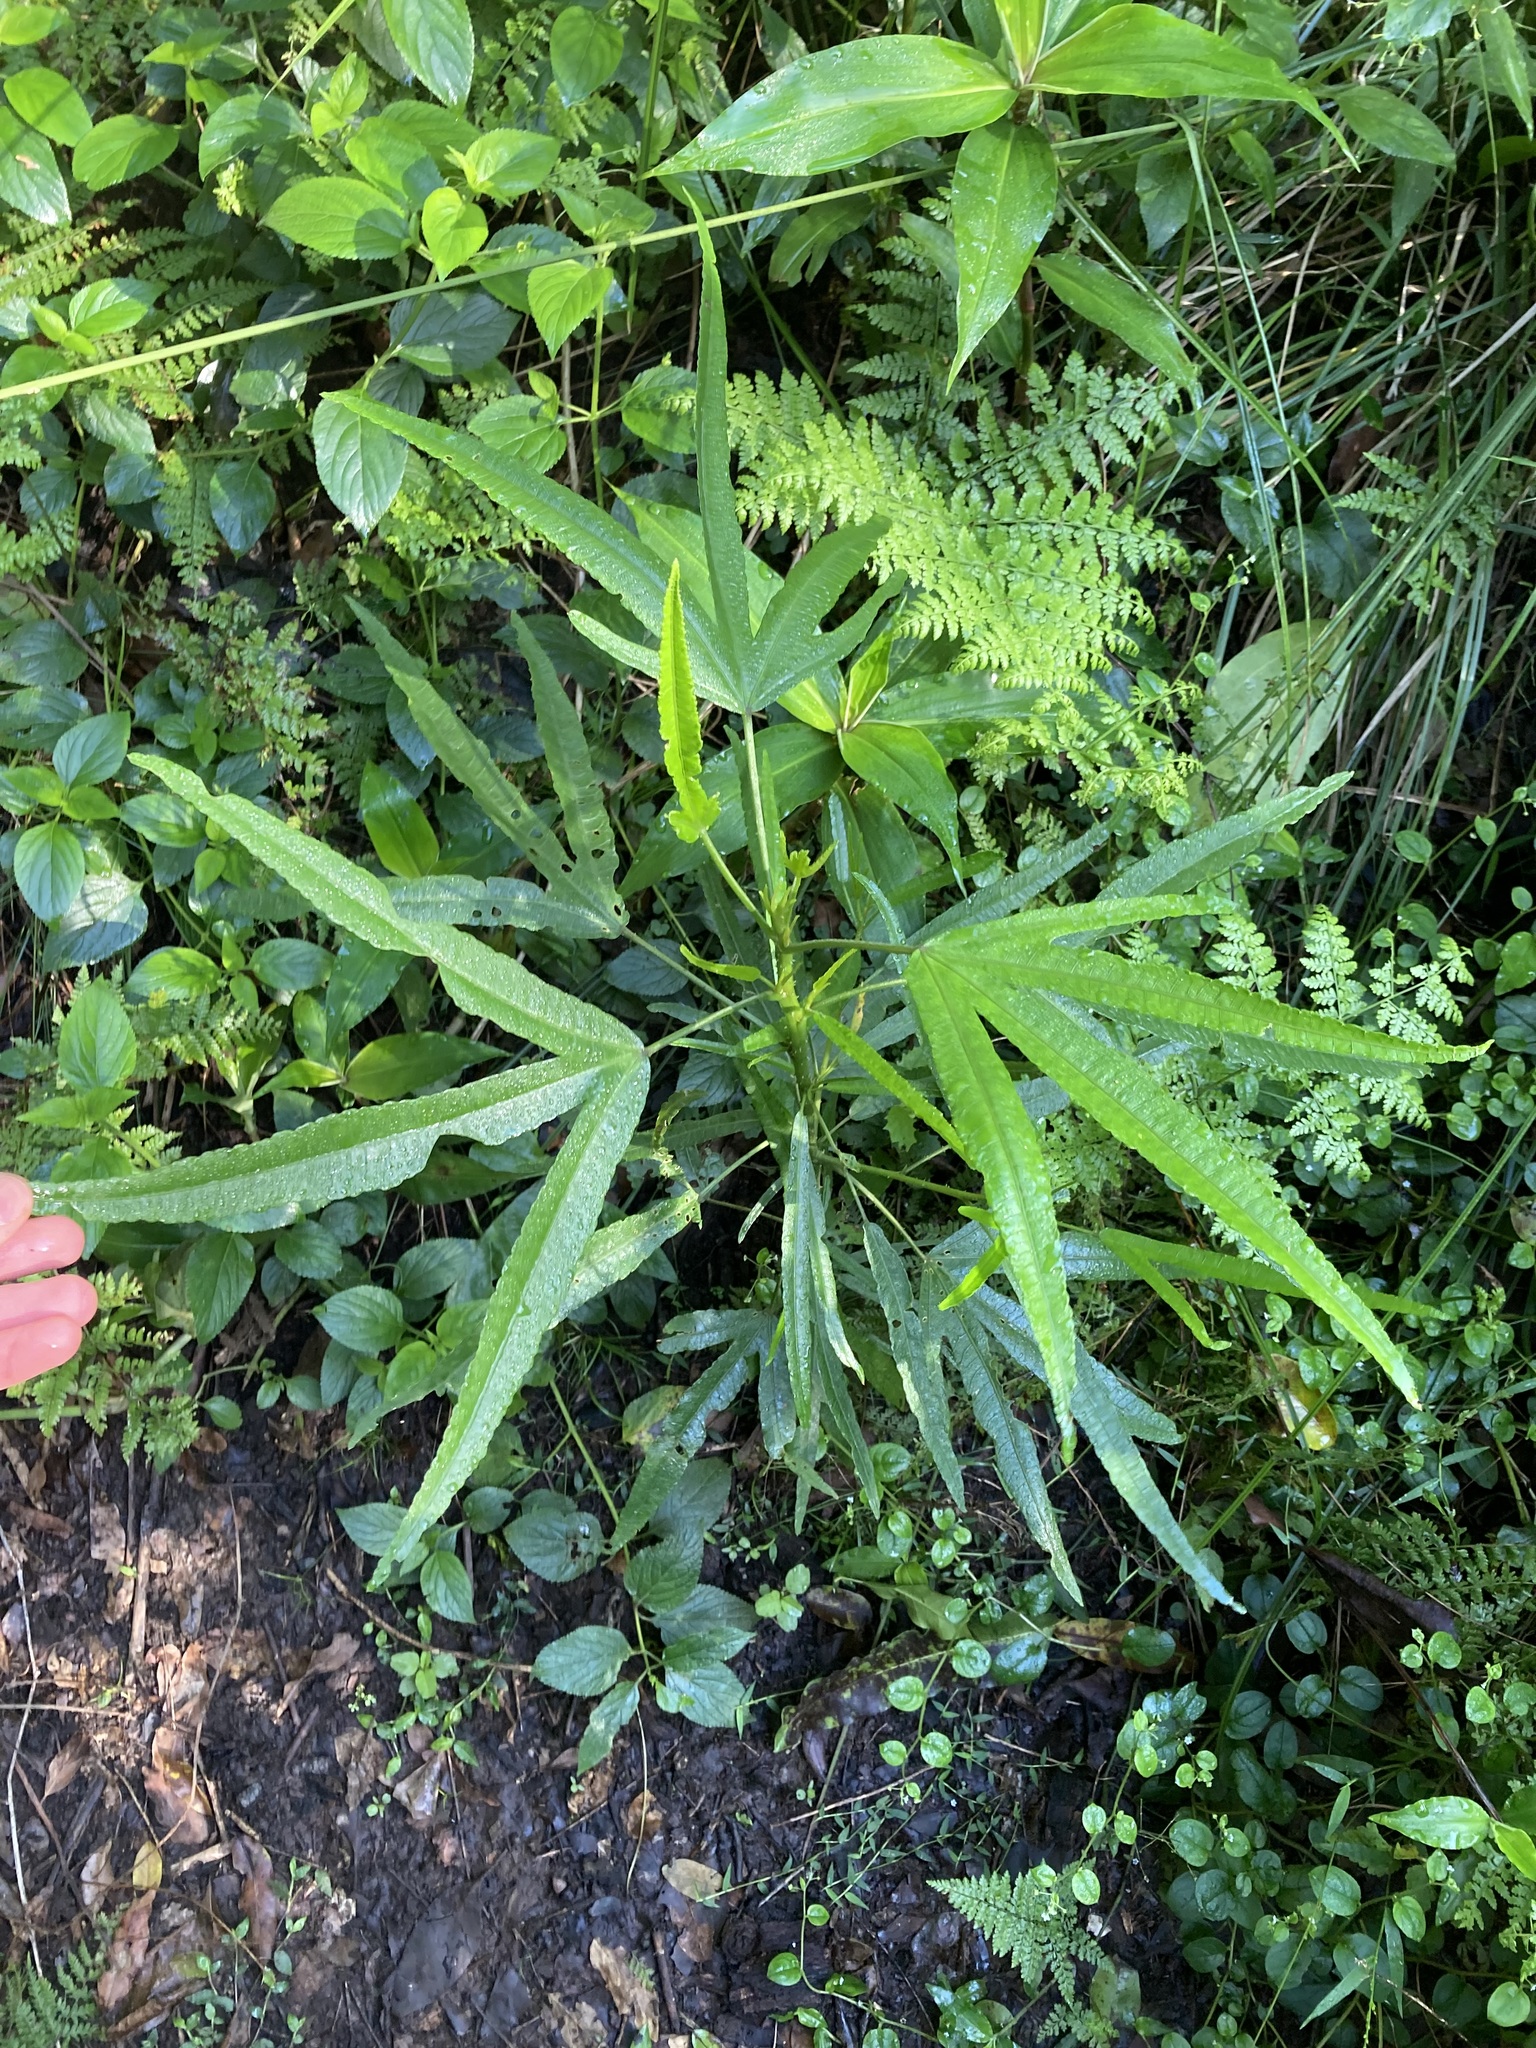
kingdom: Plantae
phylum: Tracheophyta
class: Magnoliopsida
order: Malvales
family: Malvaceae
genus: Hibiscus
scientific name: Hibiscus heterophyllus
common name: Queensland-sorrel
